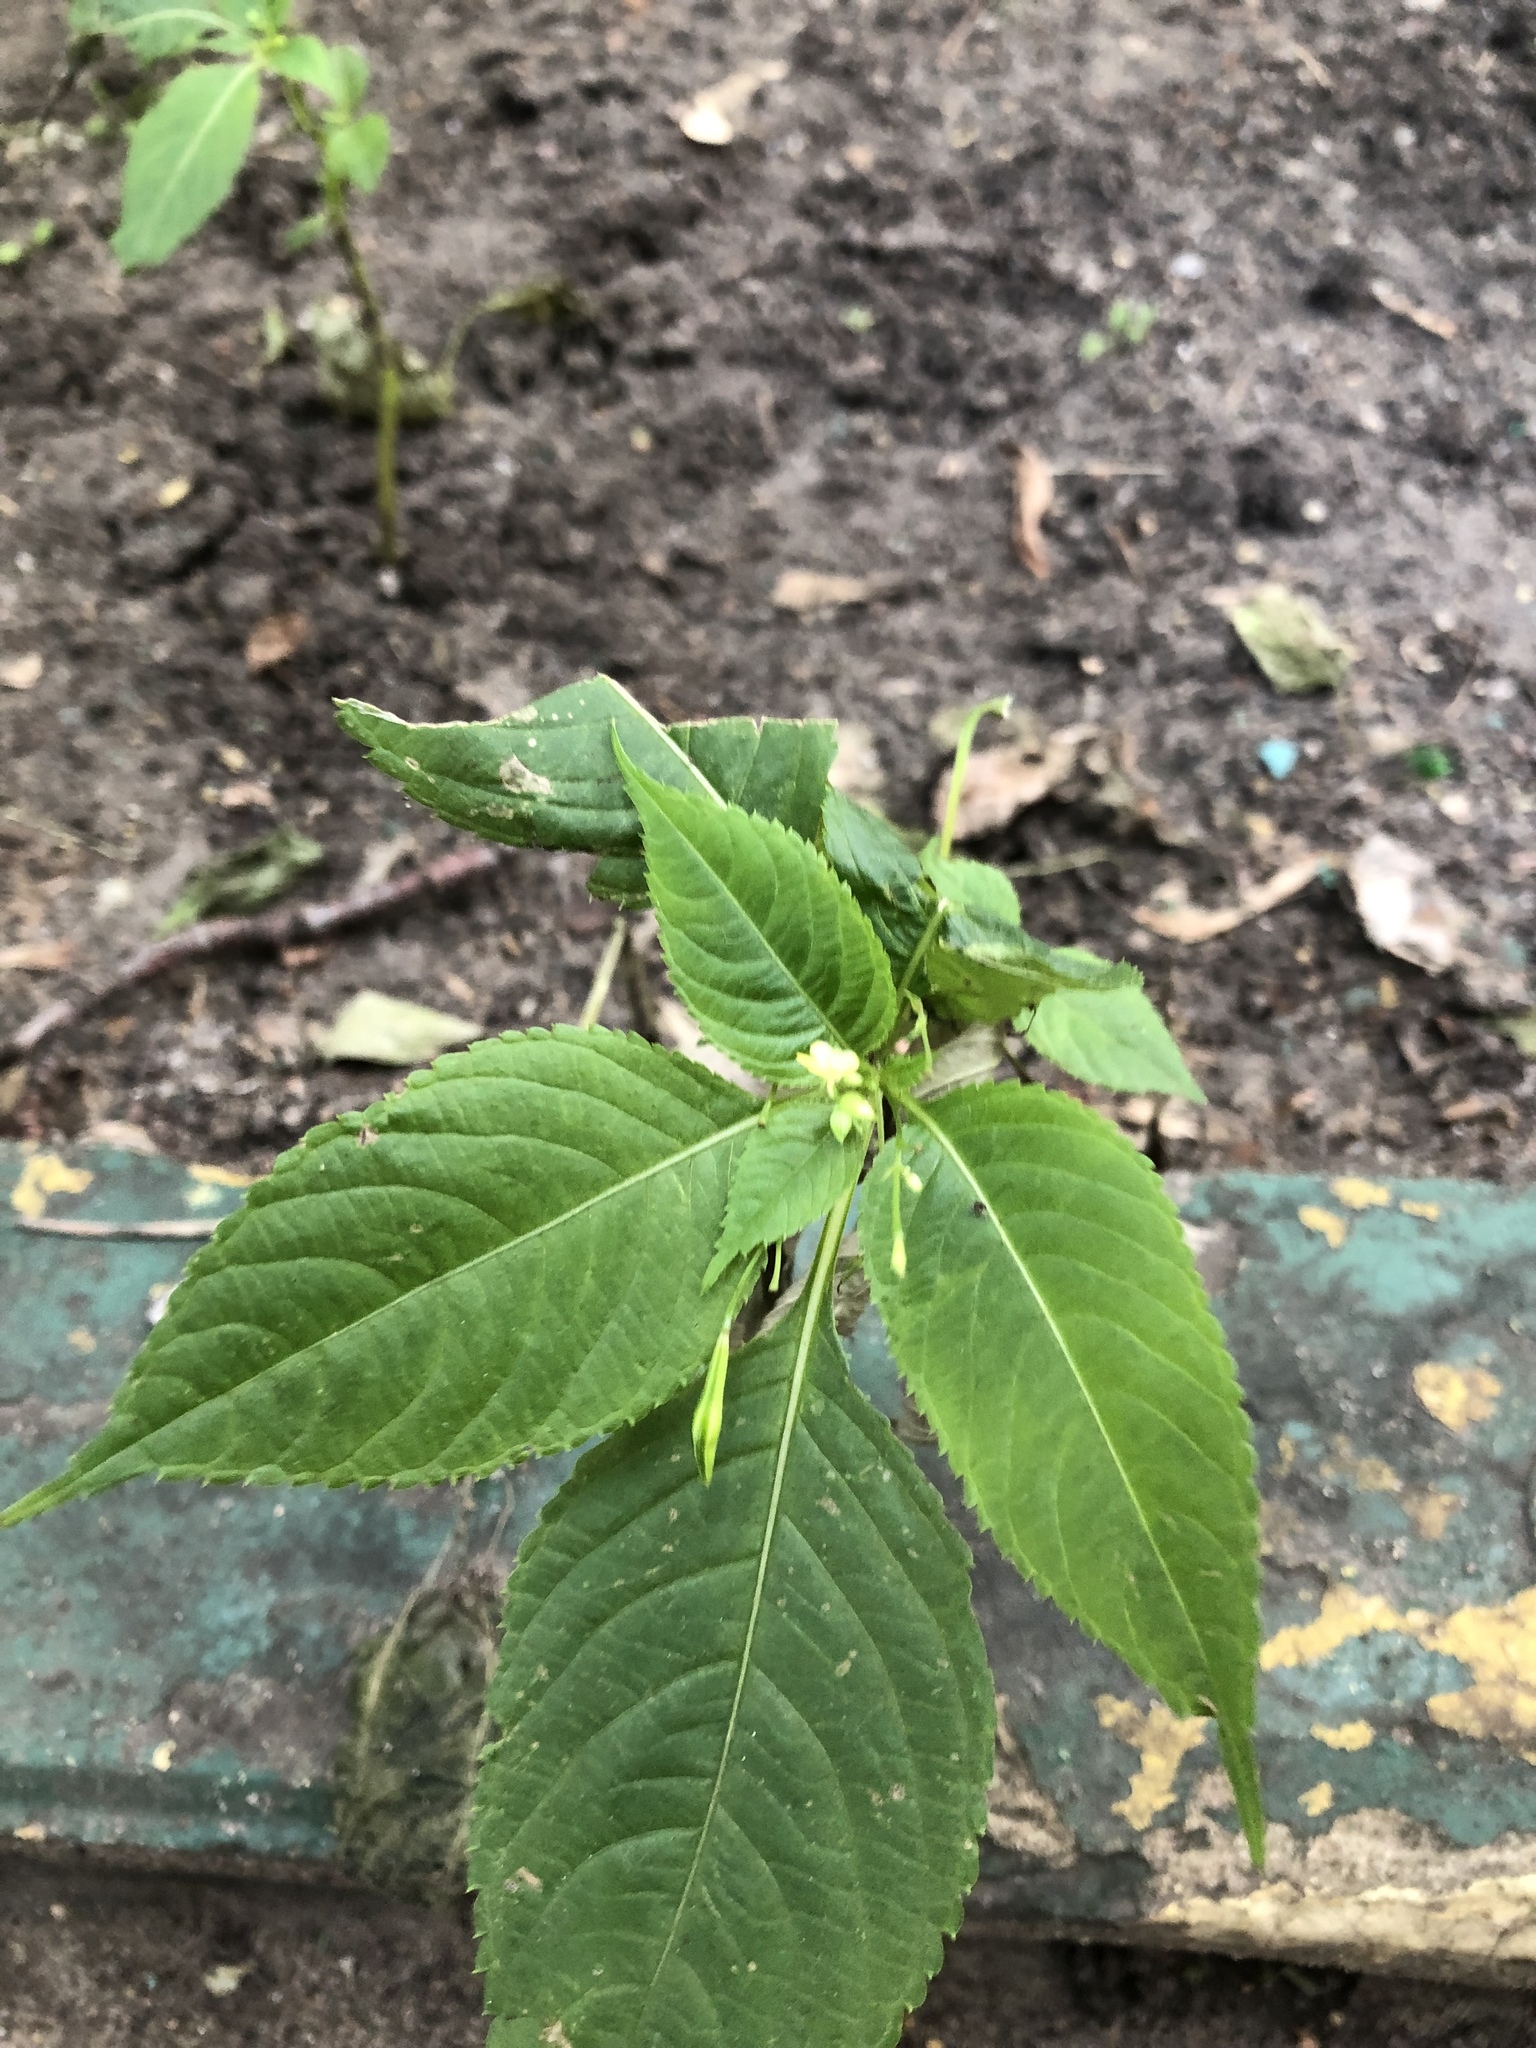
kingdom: Plantae
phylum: Tracheophyta
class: Magnoliopsida
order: Ericales
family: Balsaminaceae
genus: Impatiens
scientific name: Impatiens parviflora
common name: Small balsam
